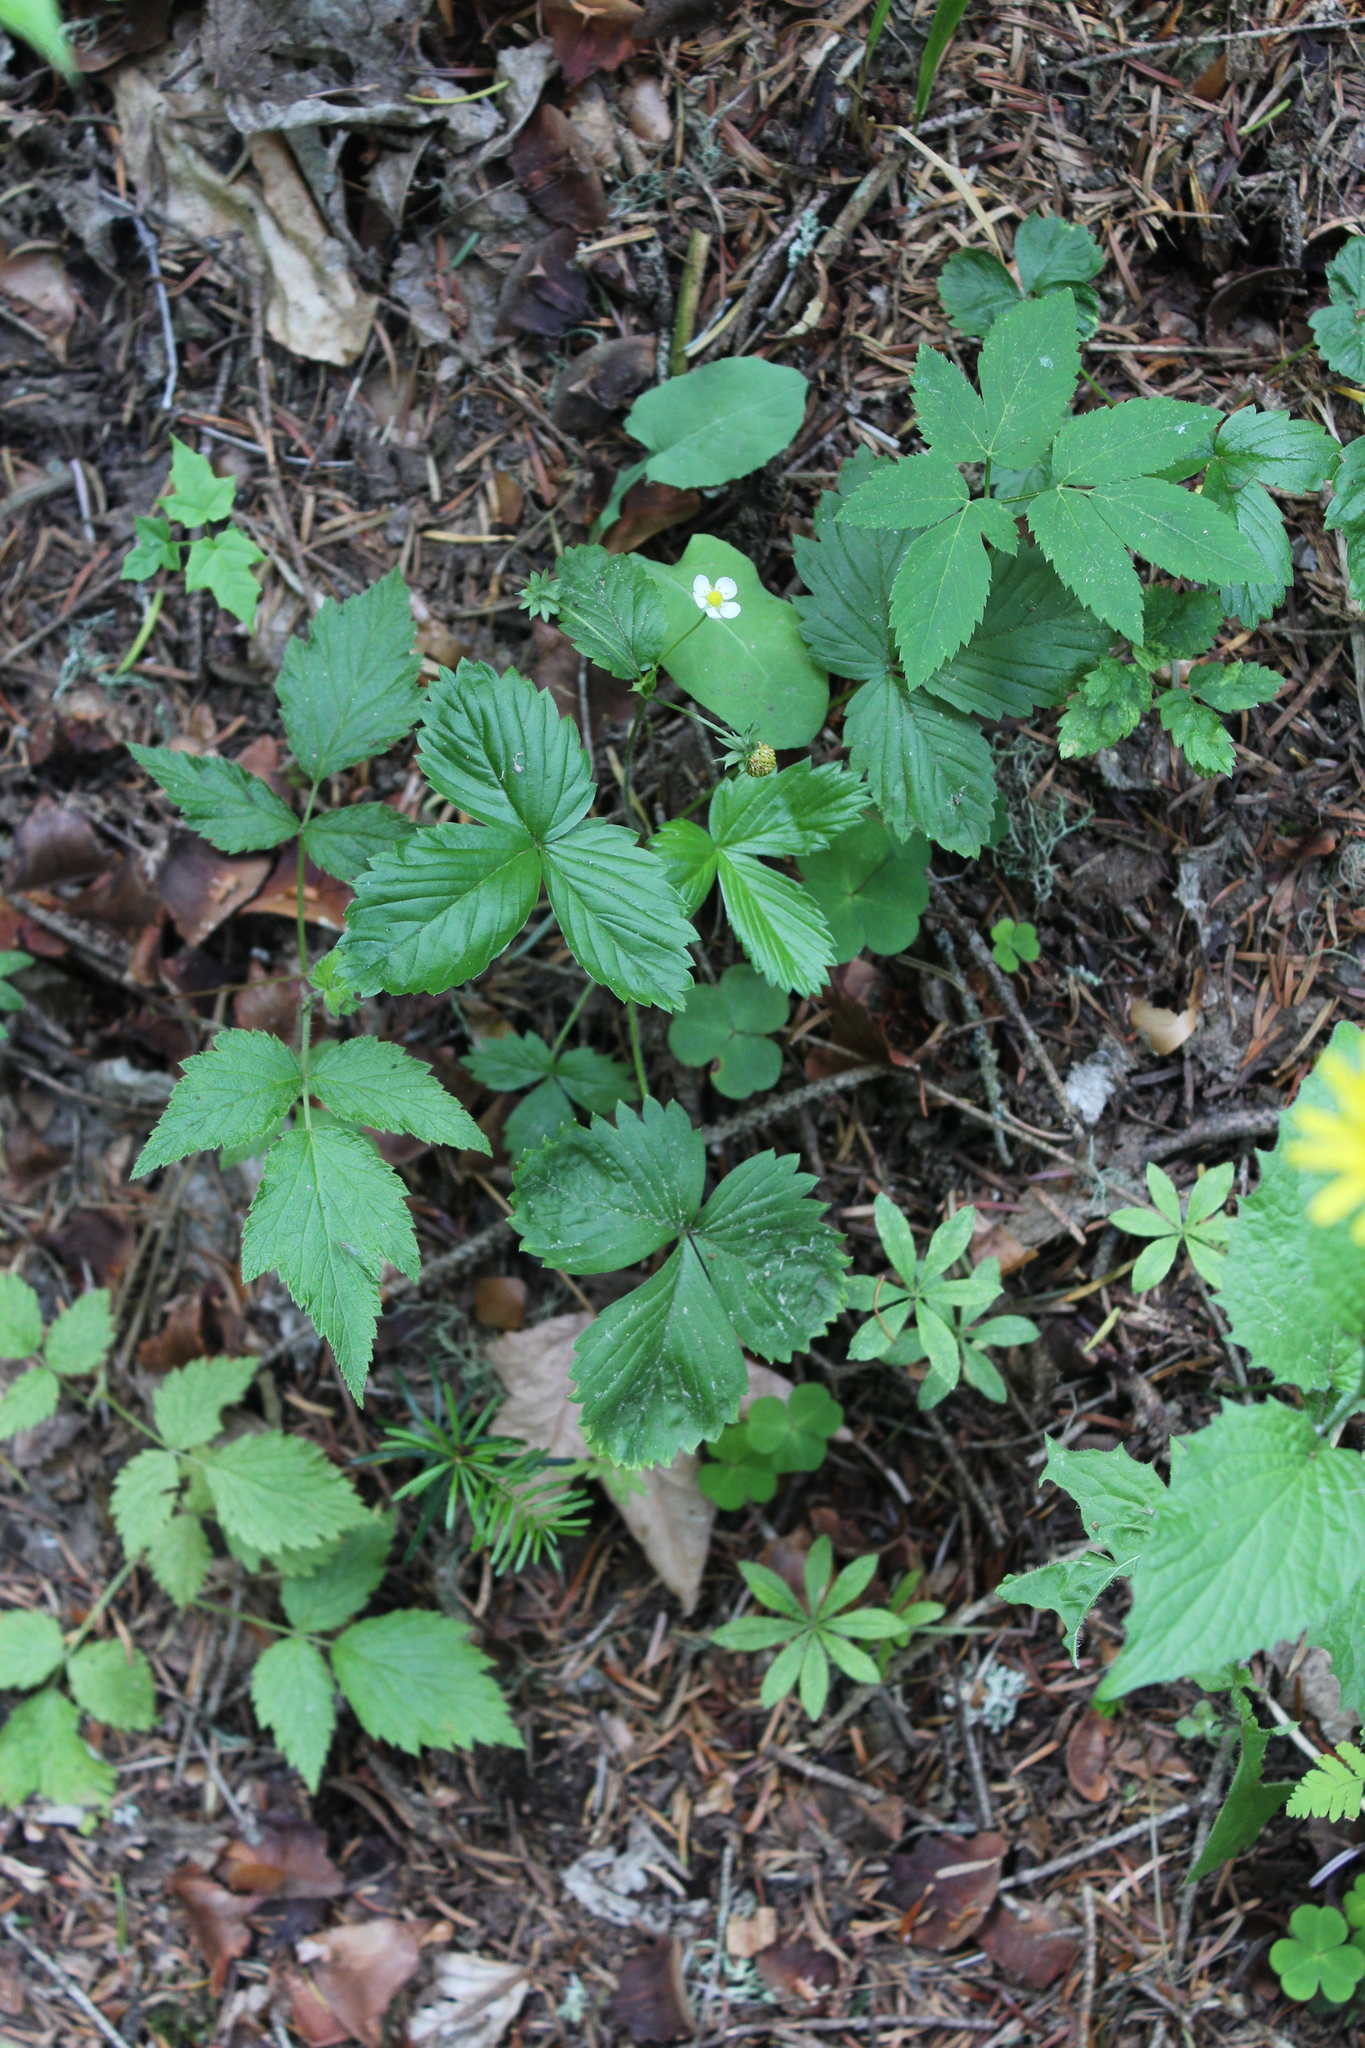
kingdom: Plantae
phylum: Tracheophyta
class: Magnoliopsida
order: Rosales
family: Rosaceae
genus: Fragaria
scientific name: Fragaria vesca
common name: Wild strawberry
